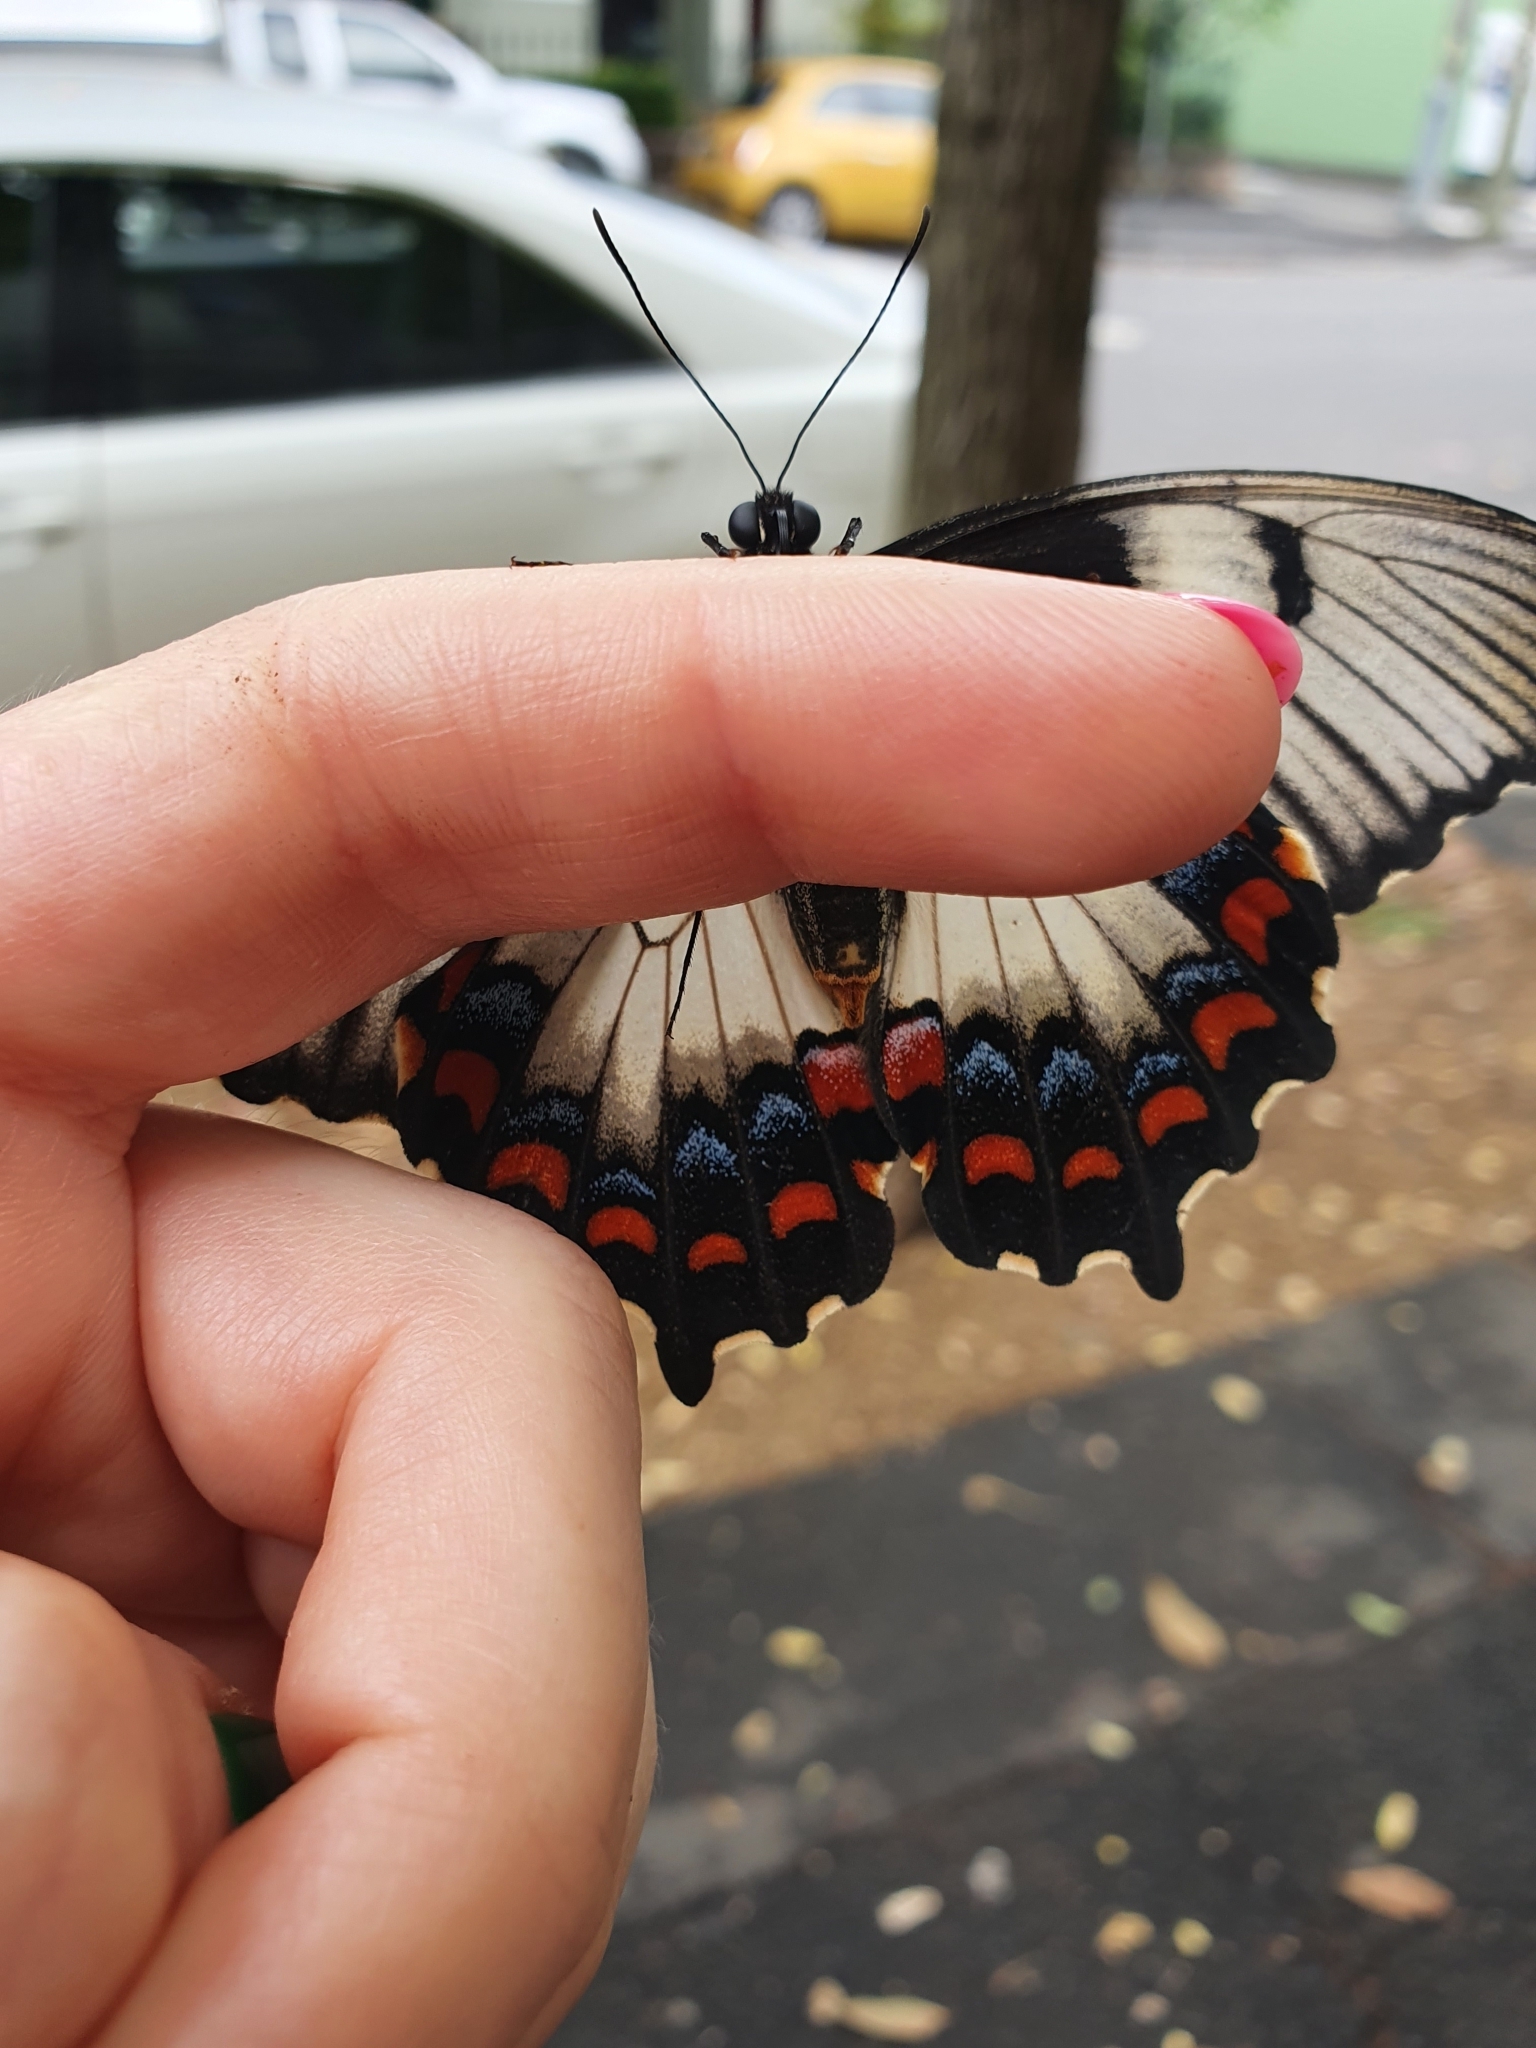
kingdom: Animalia
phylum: Arthropoda
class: Insecta
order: Lepidoptera
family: Papilionidae
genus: Papilio
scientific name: Papilio aegeus
